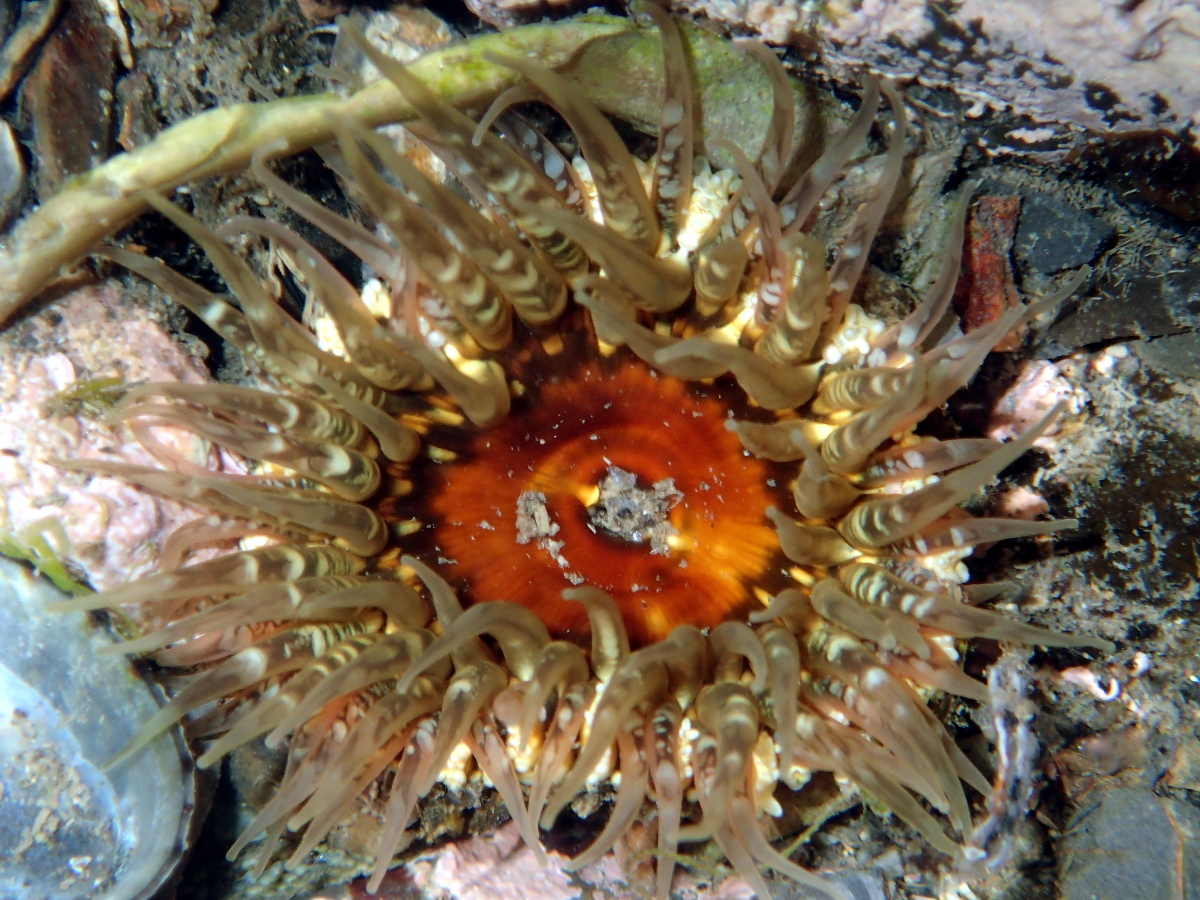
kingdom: Animalia
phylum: Cnidaria
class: Anthozoa
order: Actiniaria
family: Actiniidae
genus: Oulactis
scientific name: Oulactis muscosa
